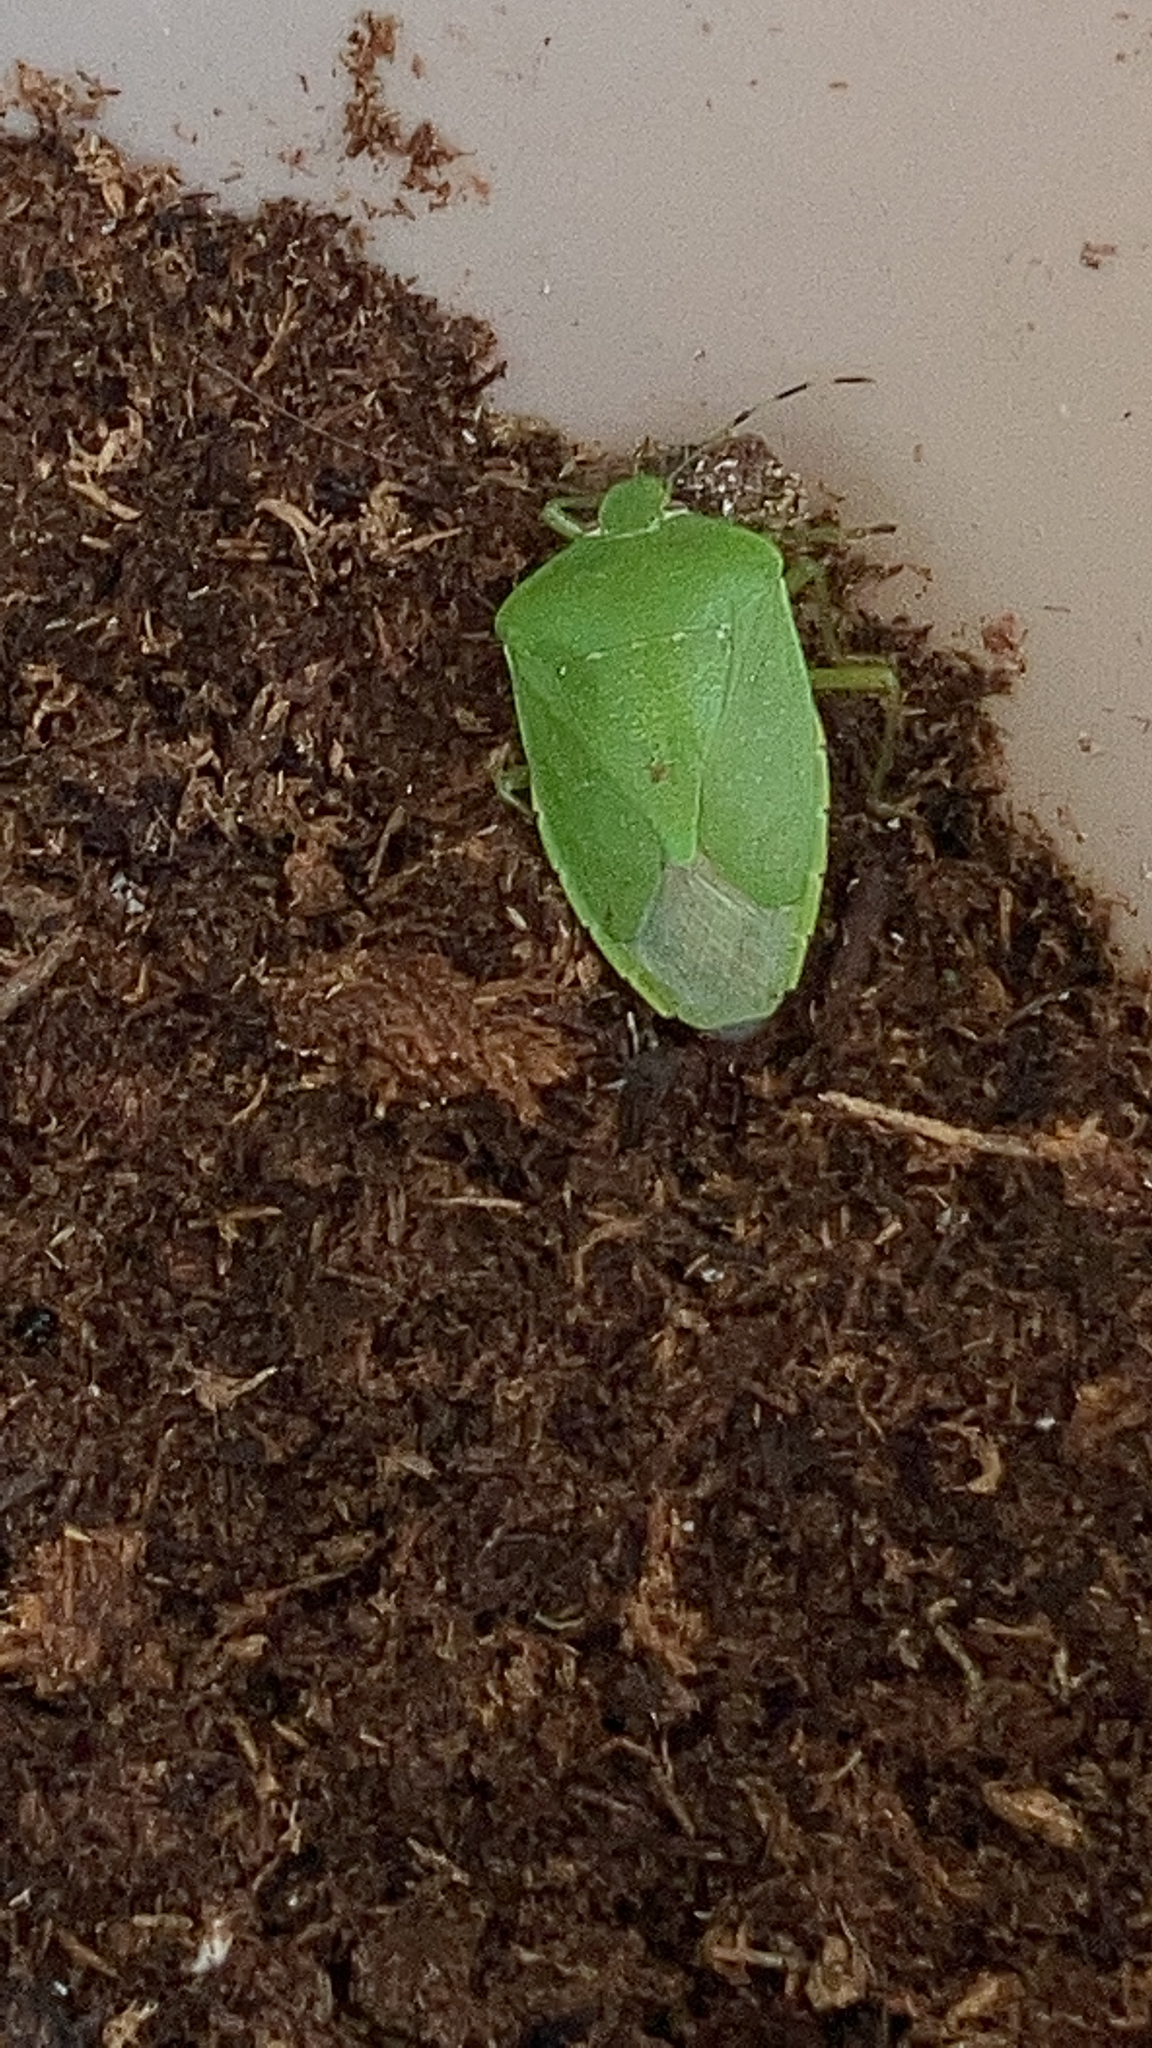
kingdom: Animalia
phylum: Arthropoda
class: Insecta
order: Hemiptera
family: Pentatomidae
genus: Chinavia
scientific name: Chinavia hilaris
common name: Green stink bug
